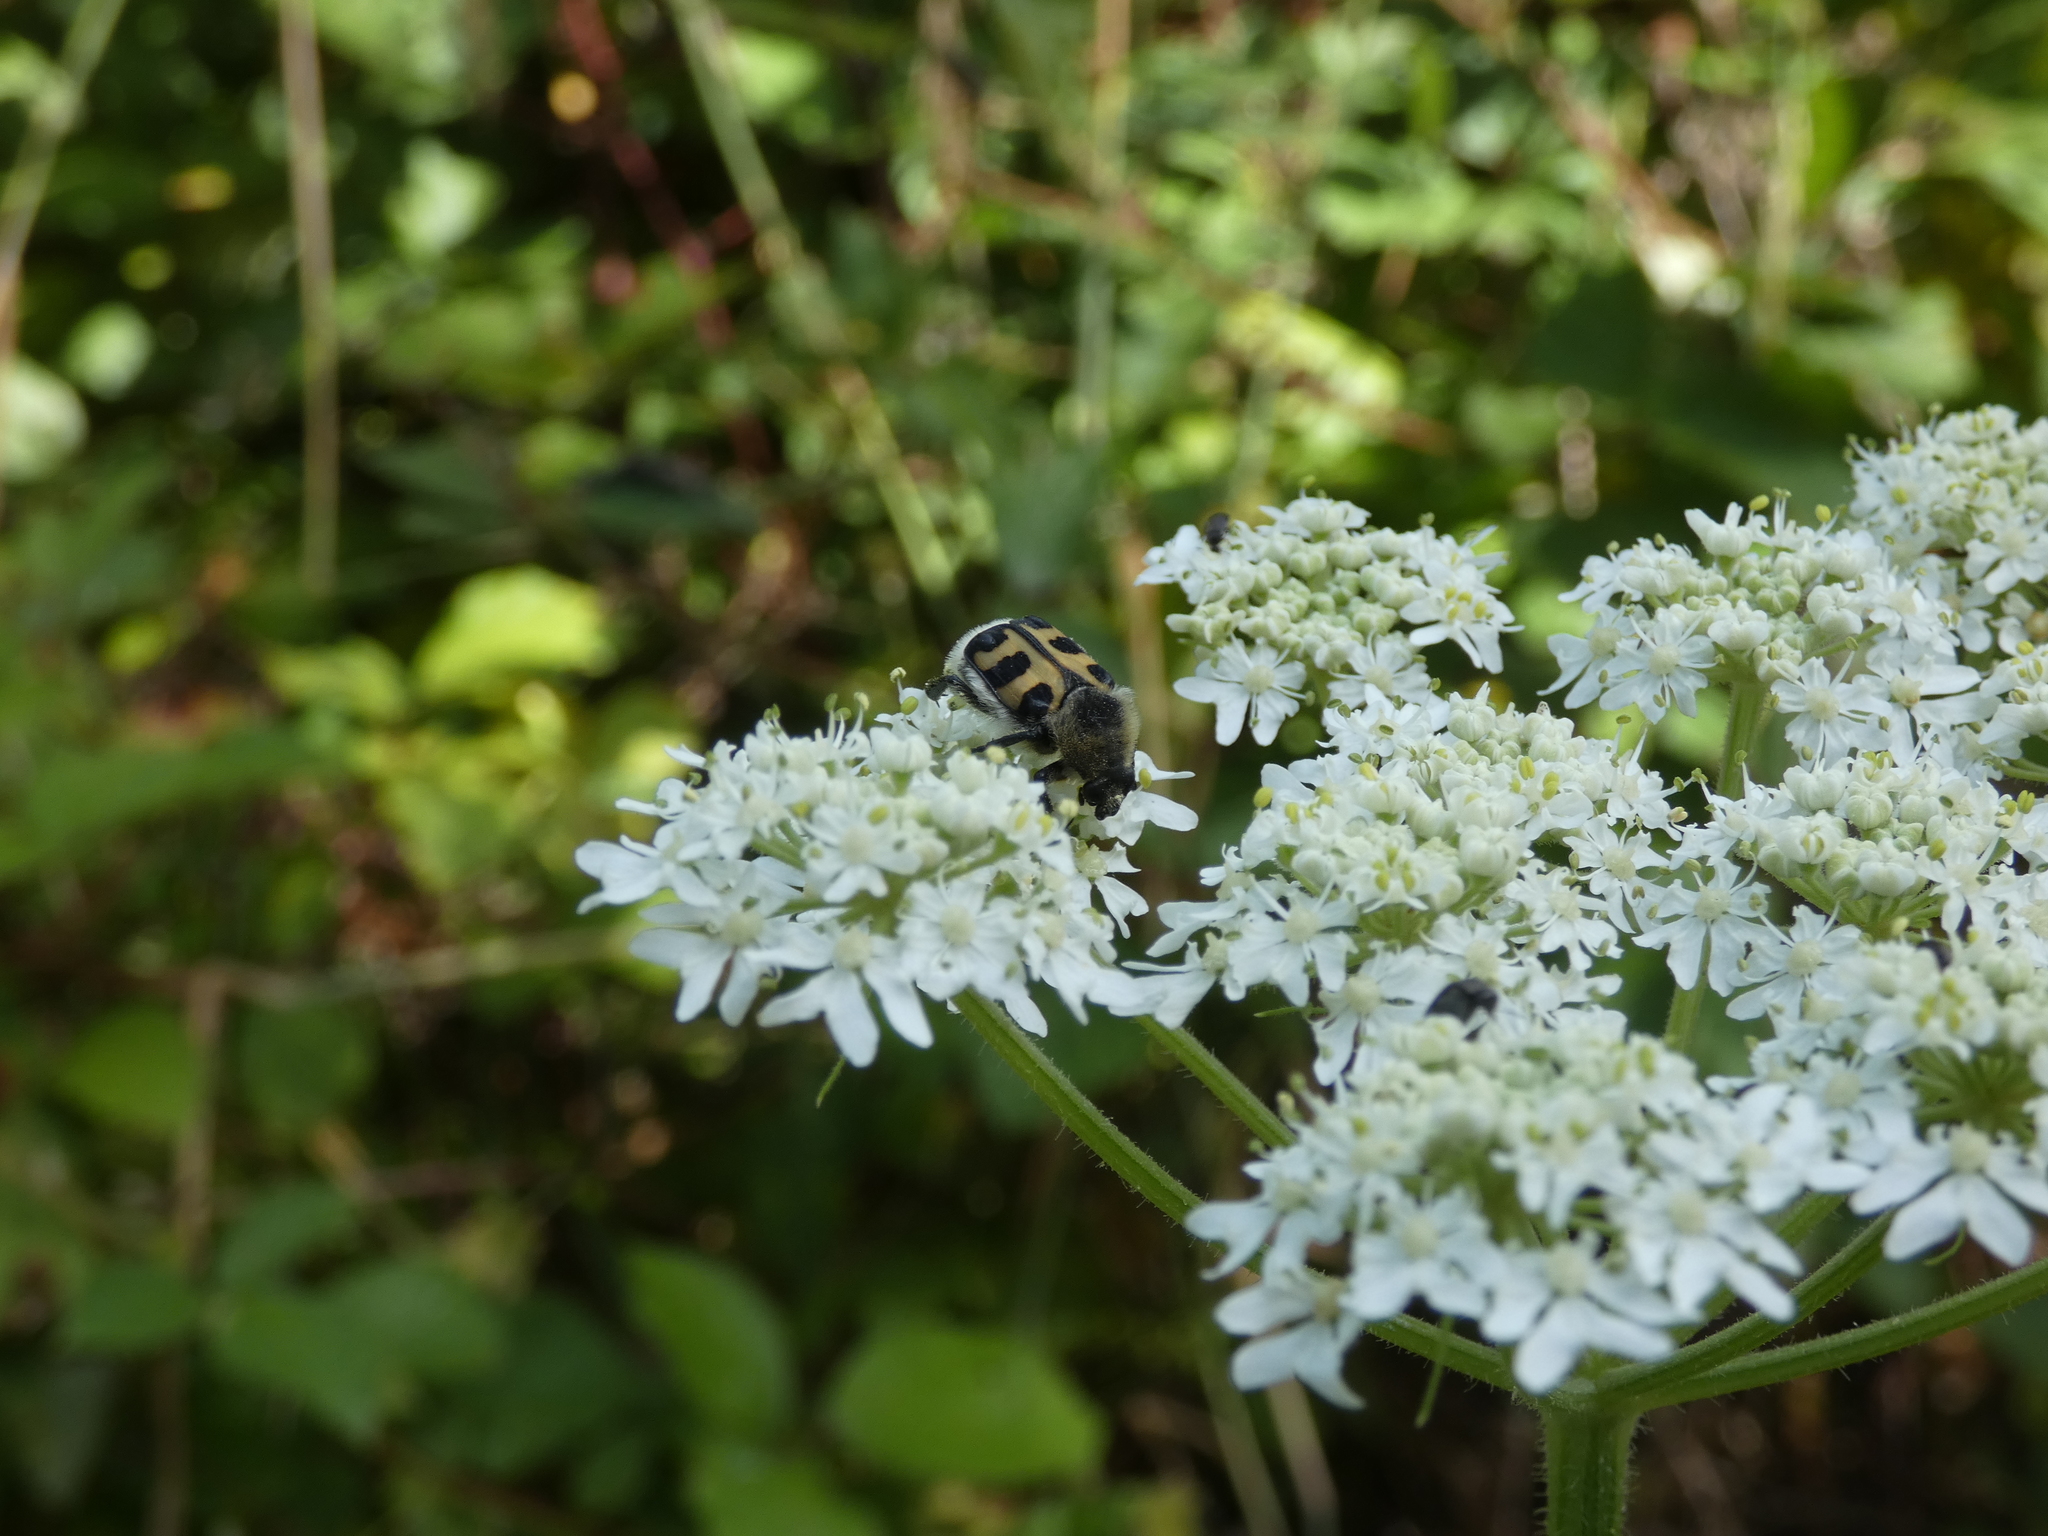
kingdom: Animalia
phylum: Arthropoda
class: Insecta
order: Coleoptera
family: Scarabaeidae
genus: Trichius
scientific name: Trichius gallicus
